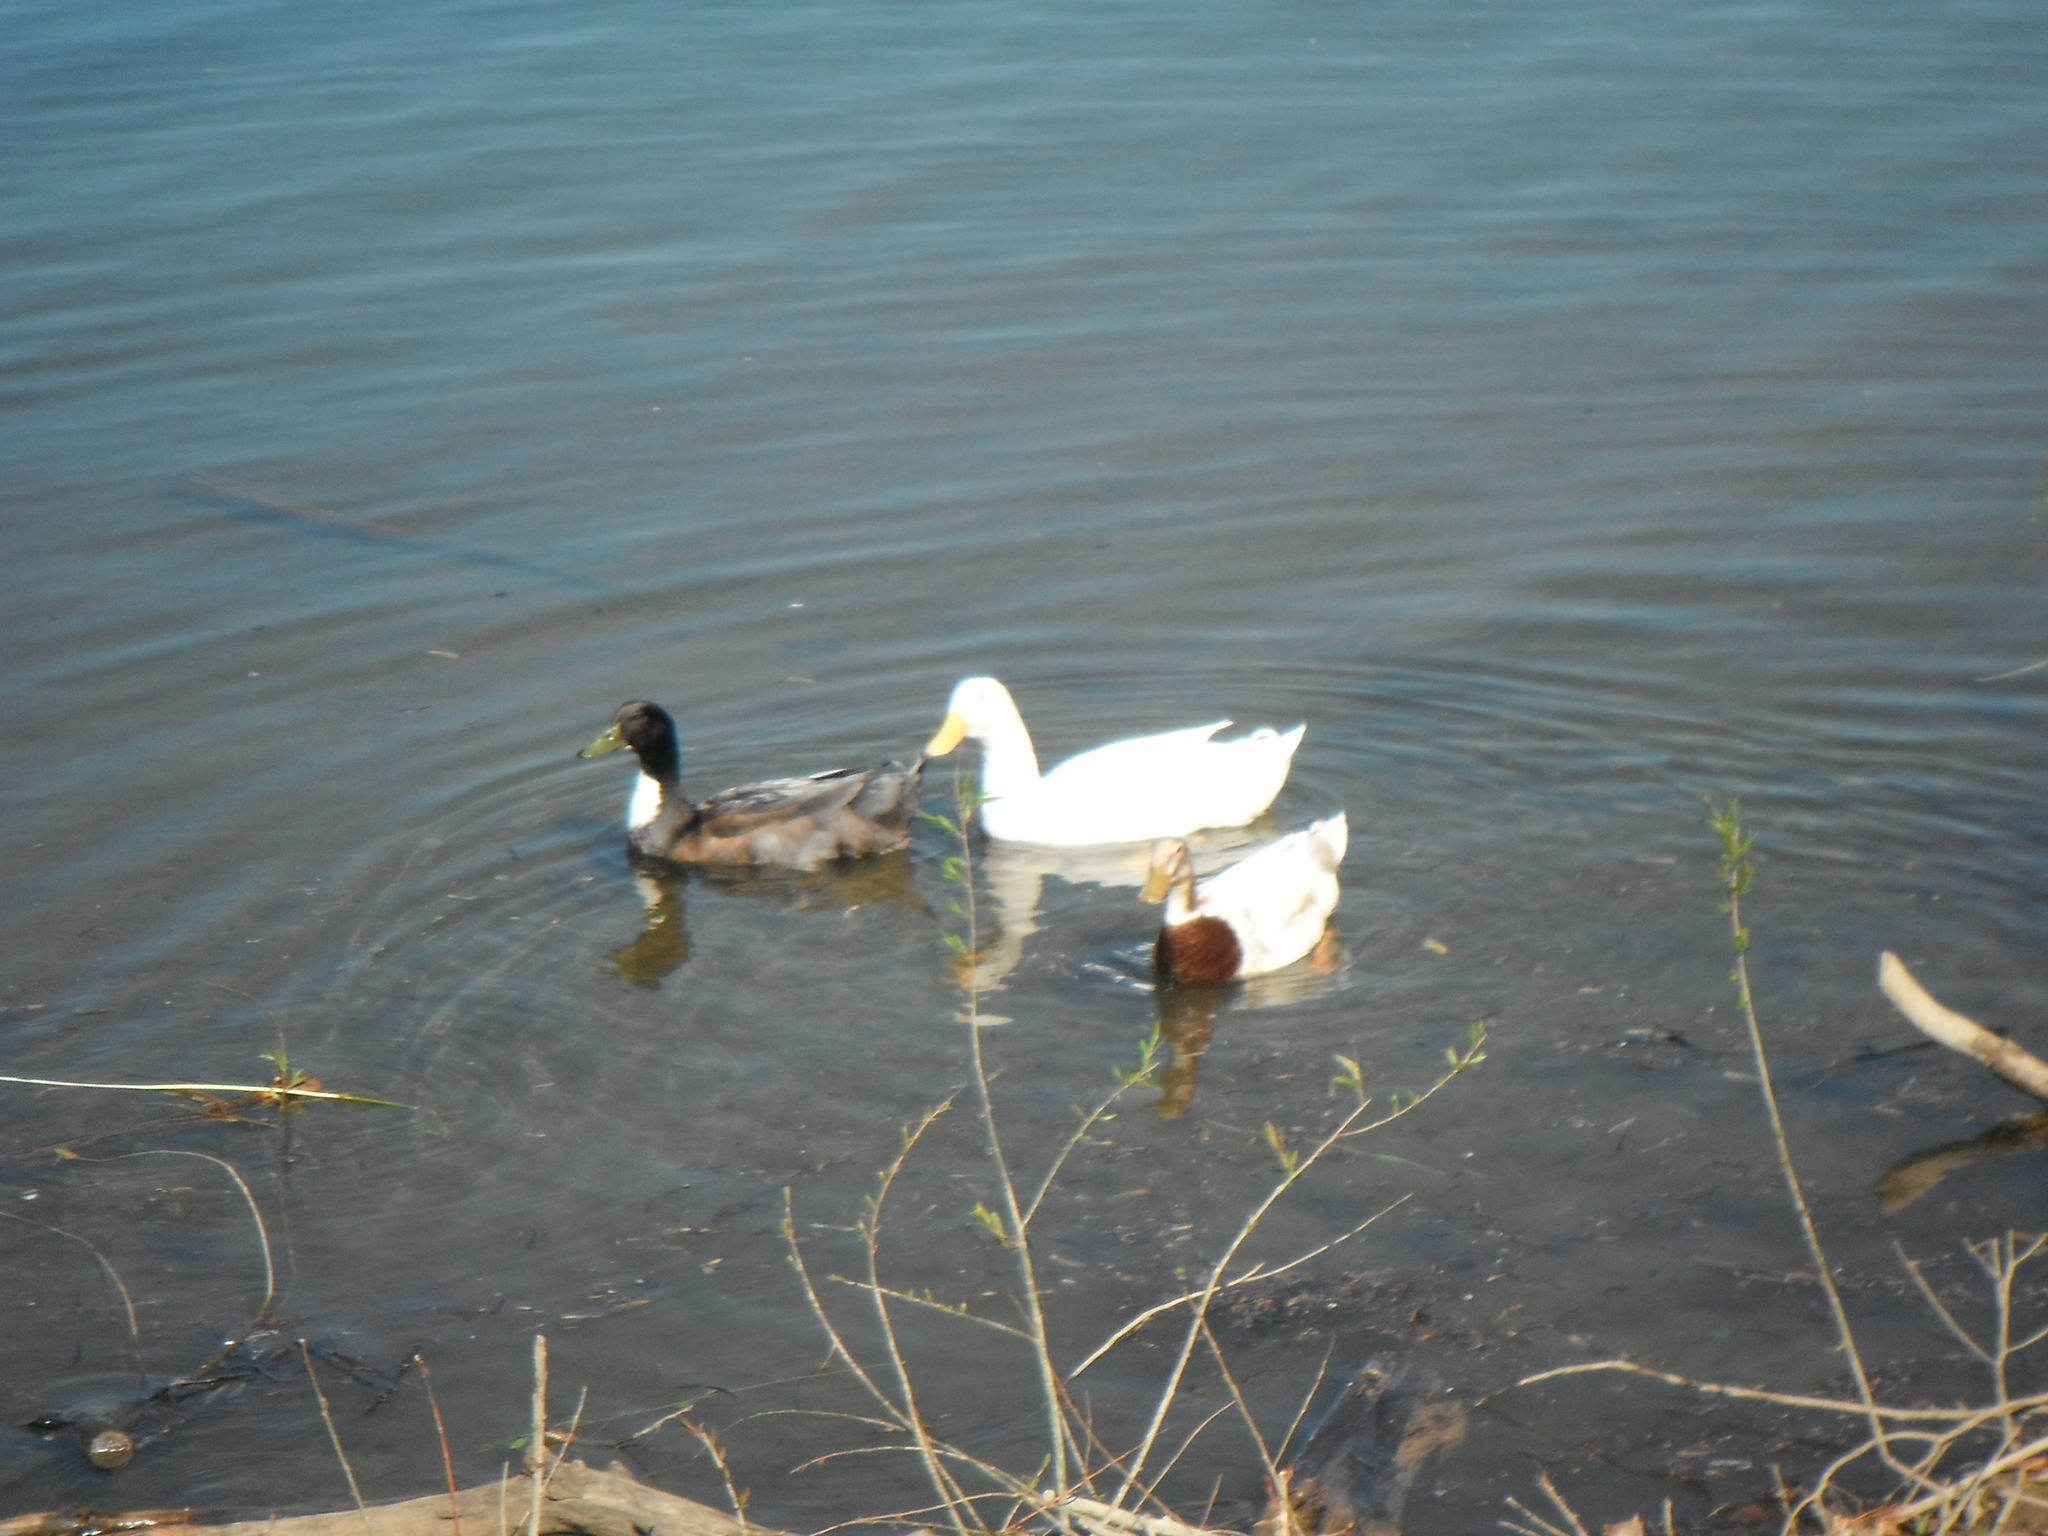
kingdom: Animalia
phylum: Chordata
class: Aves
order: Anseriformes
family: Anatidae
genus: Anas
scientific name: Anas platyrhynchos
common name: Mallard
